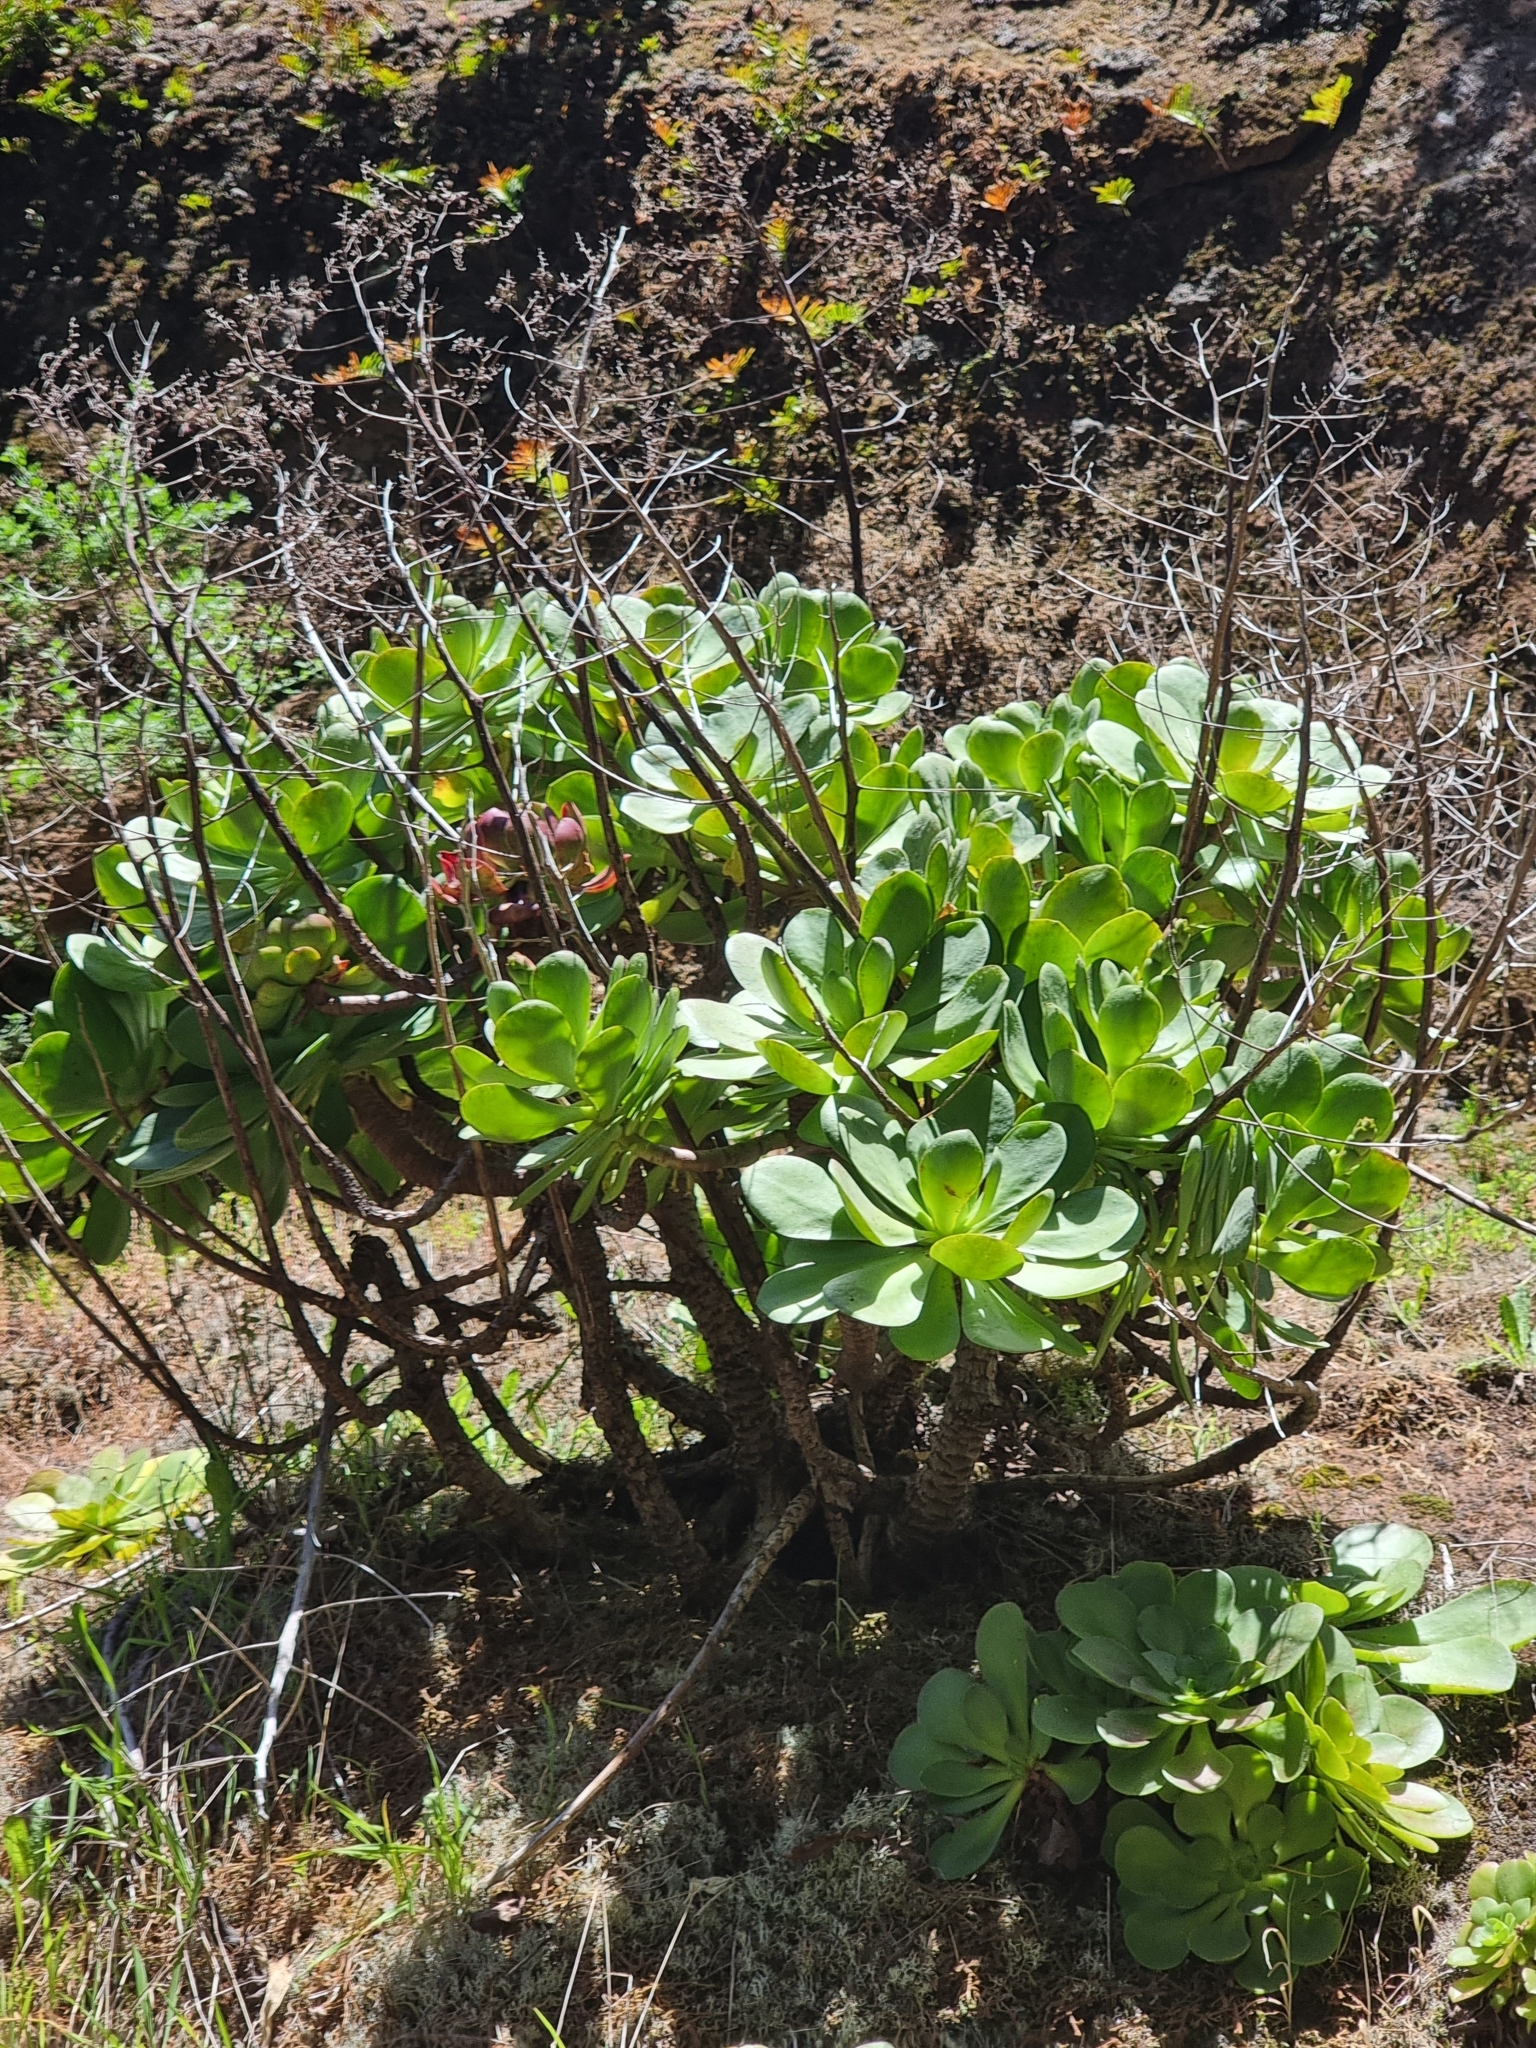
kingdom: Plantae
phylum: Tracheophyta
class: Magnoliopsida
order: Saxifragales
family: Crassulaceae
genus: Aeonium
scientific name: Aeonium glutinosum
